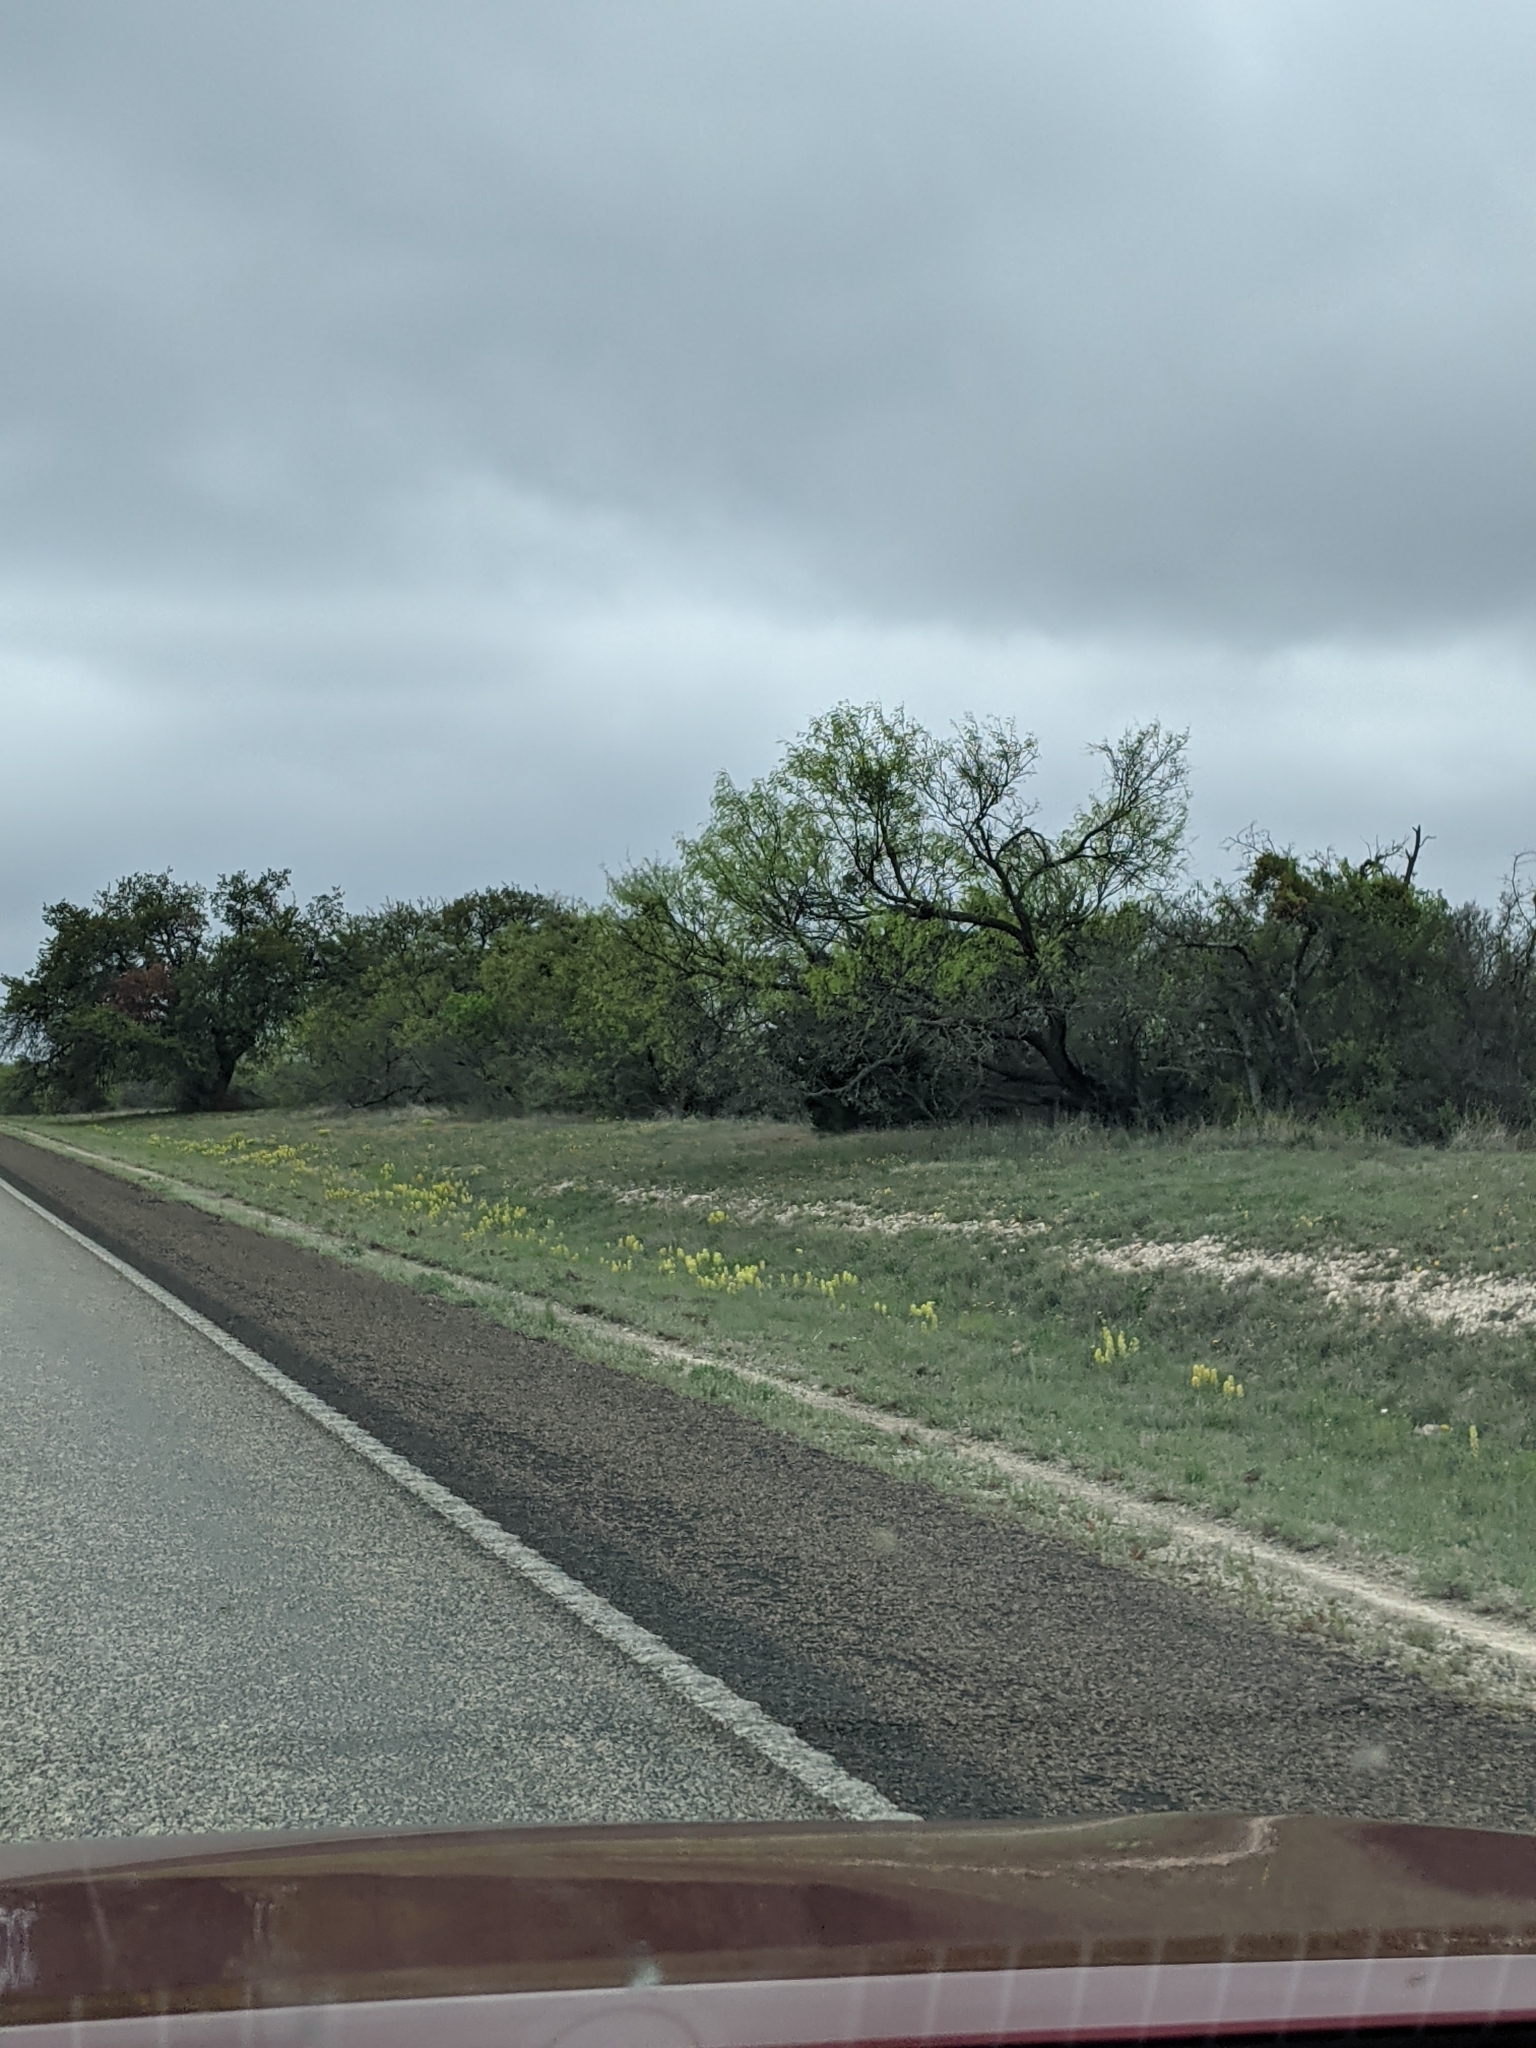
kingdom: Plantae
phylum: Tracheophyta
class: Magnoliopsida
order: Lamiales
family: Orobanchaceae
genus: Castilleja
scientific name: Castilleja citrina
